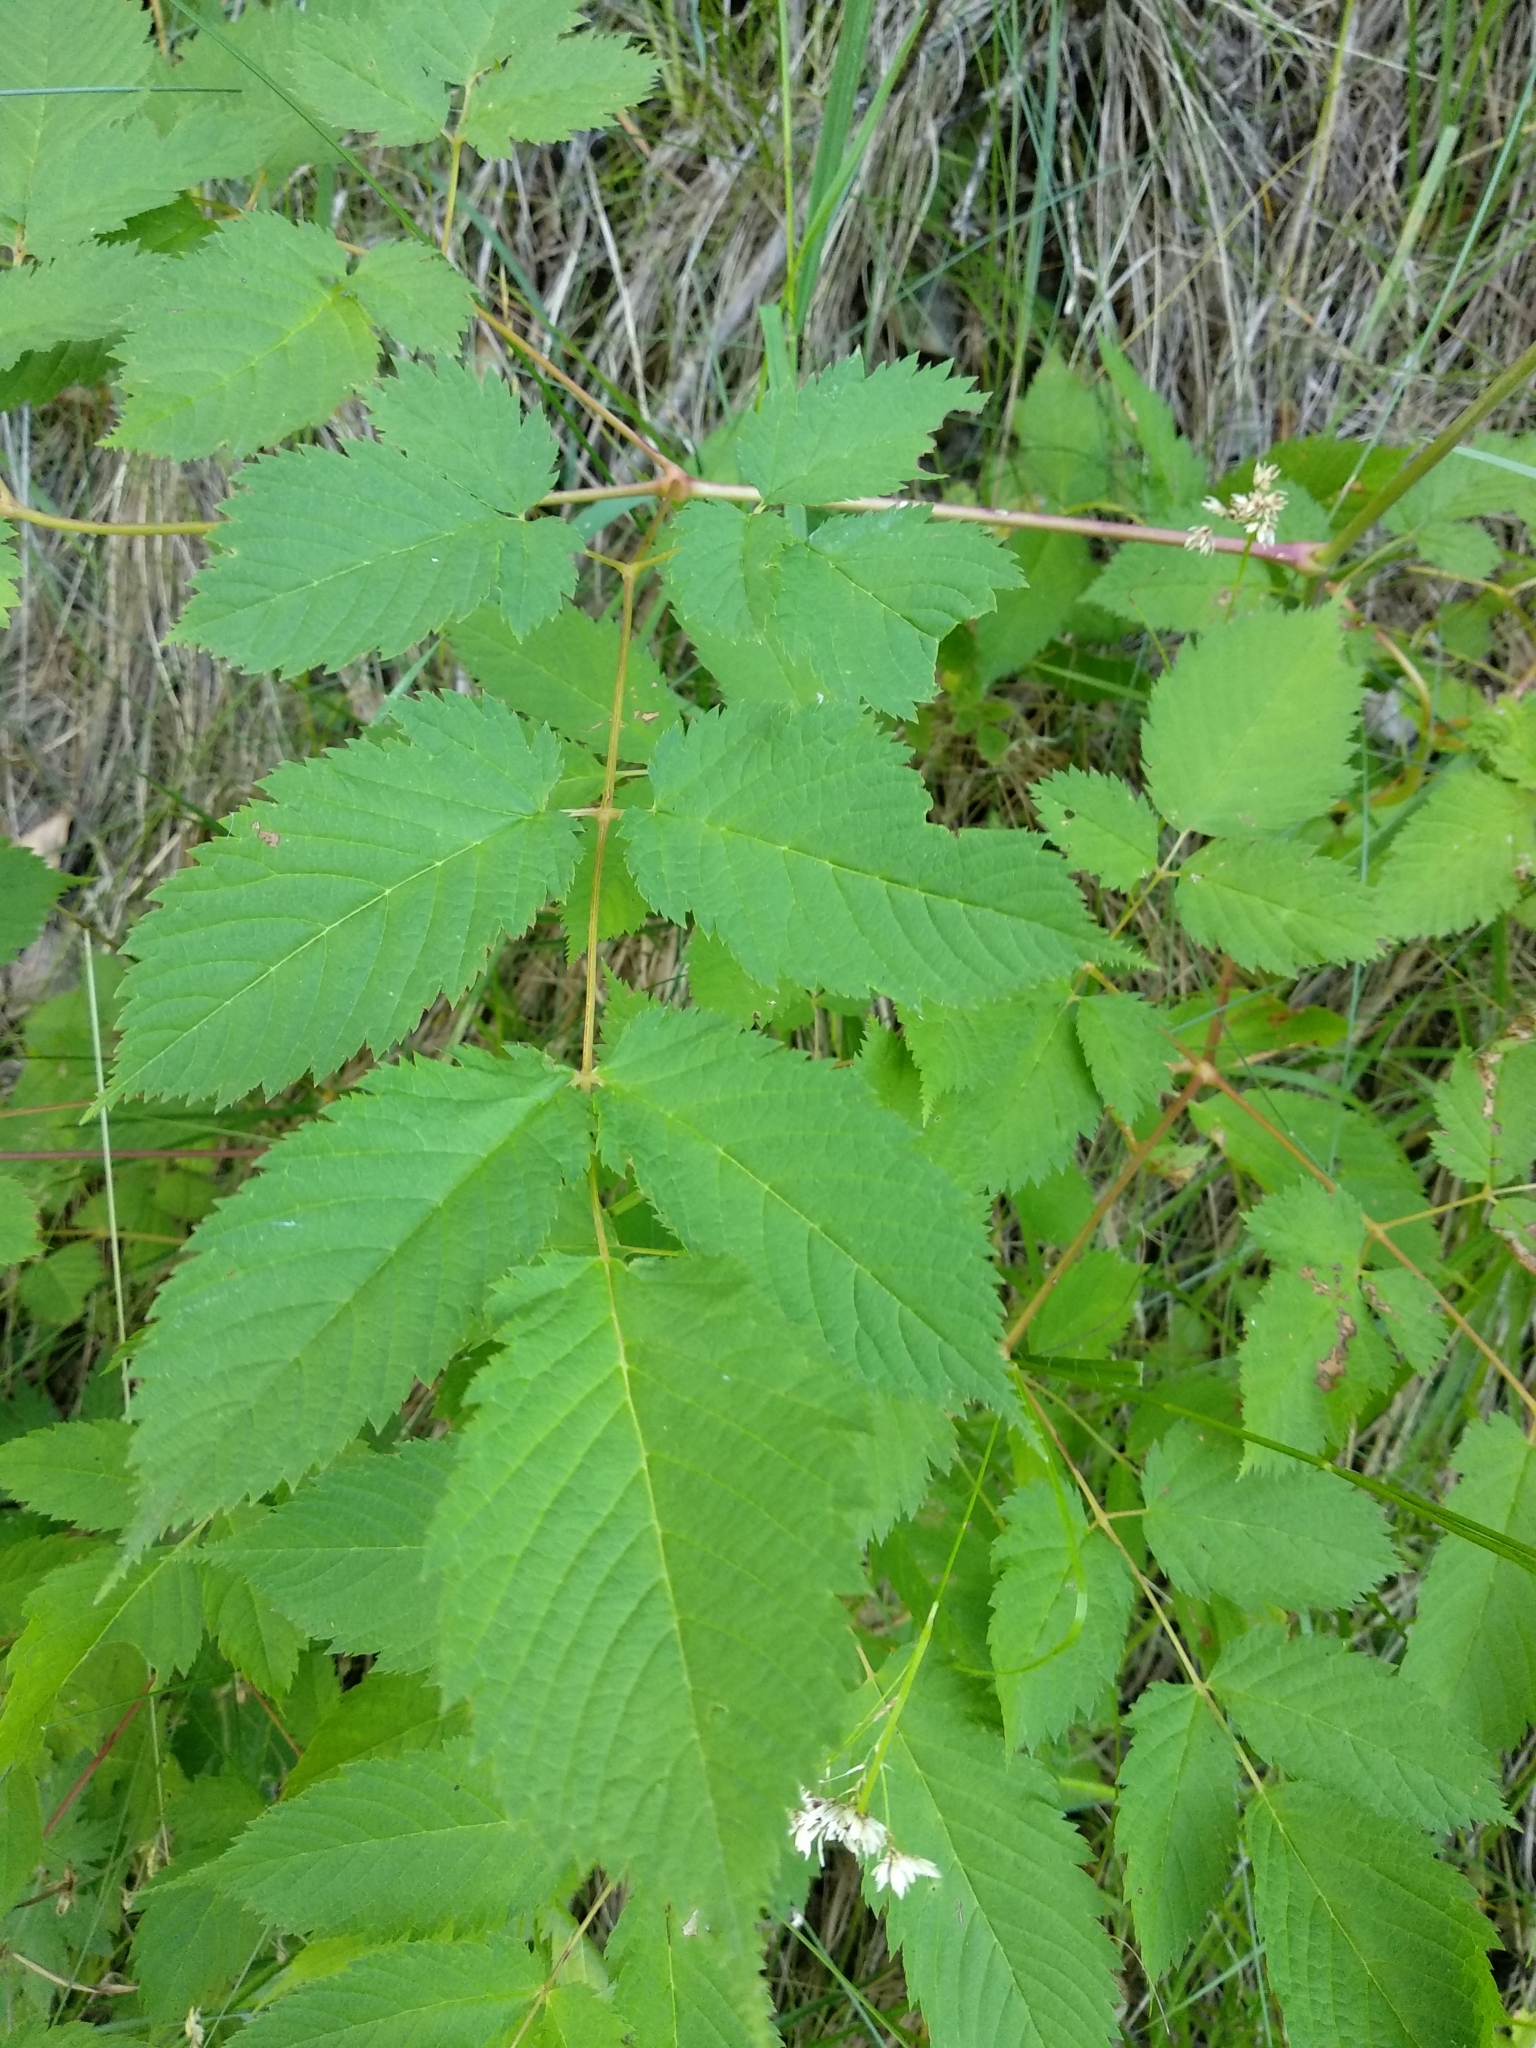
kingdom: Plantae
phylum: Tracheophyta
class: Magnoliopsida
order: Rosales
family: Rosaceae
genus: Aruncus
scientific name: Aruncus dioicus
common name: Buck's-beard
